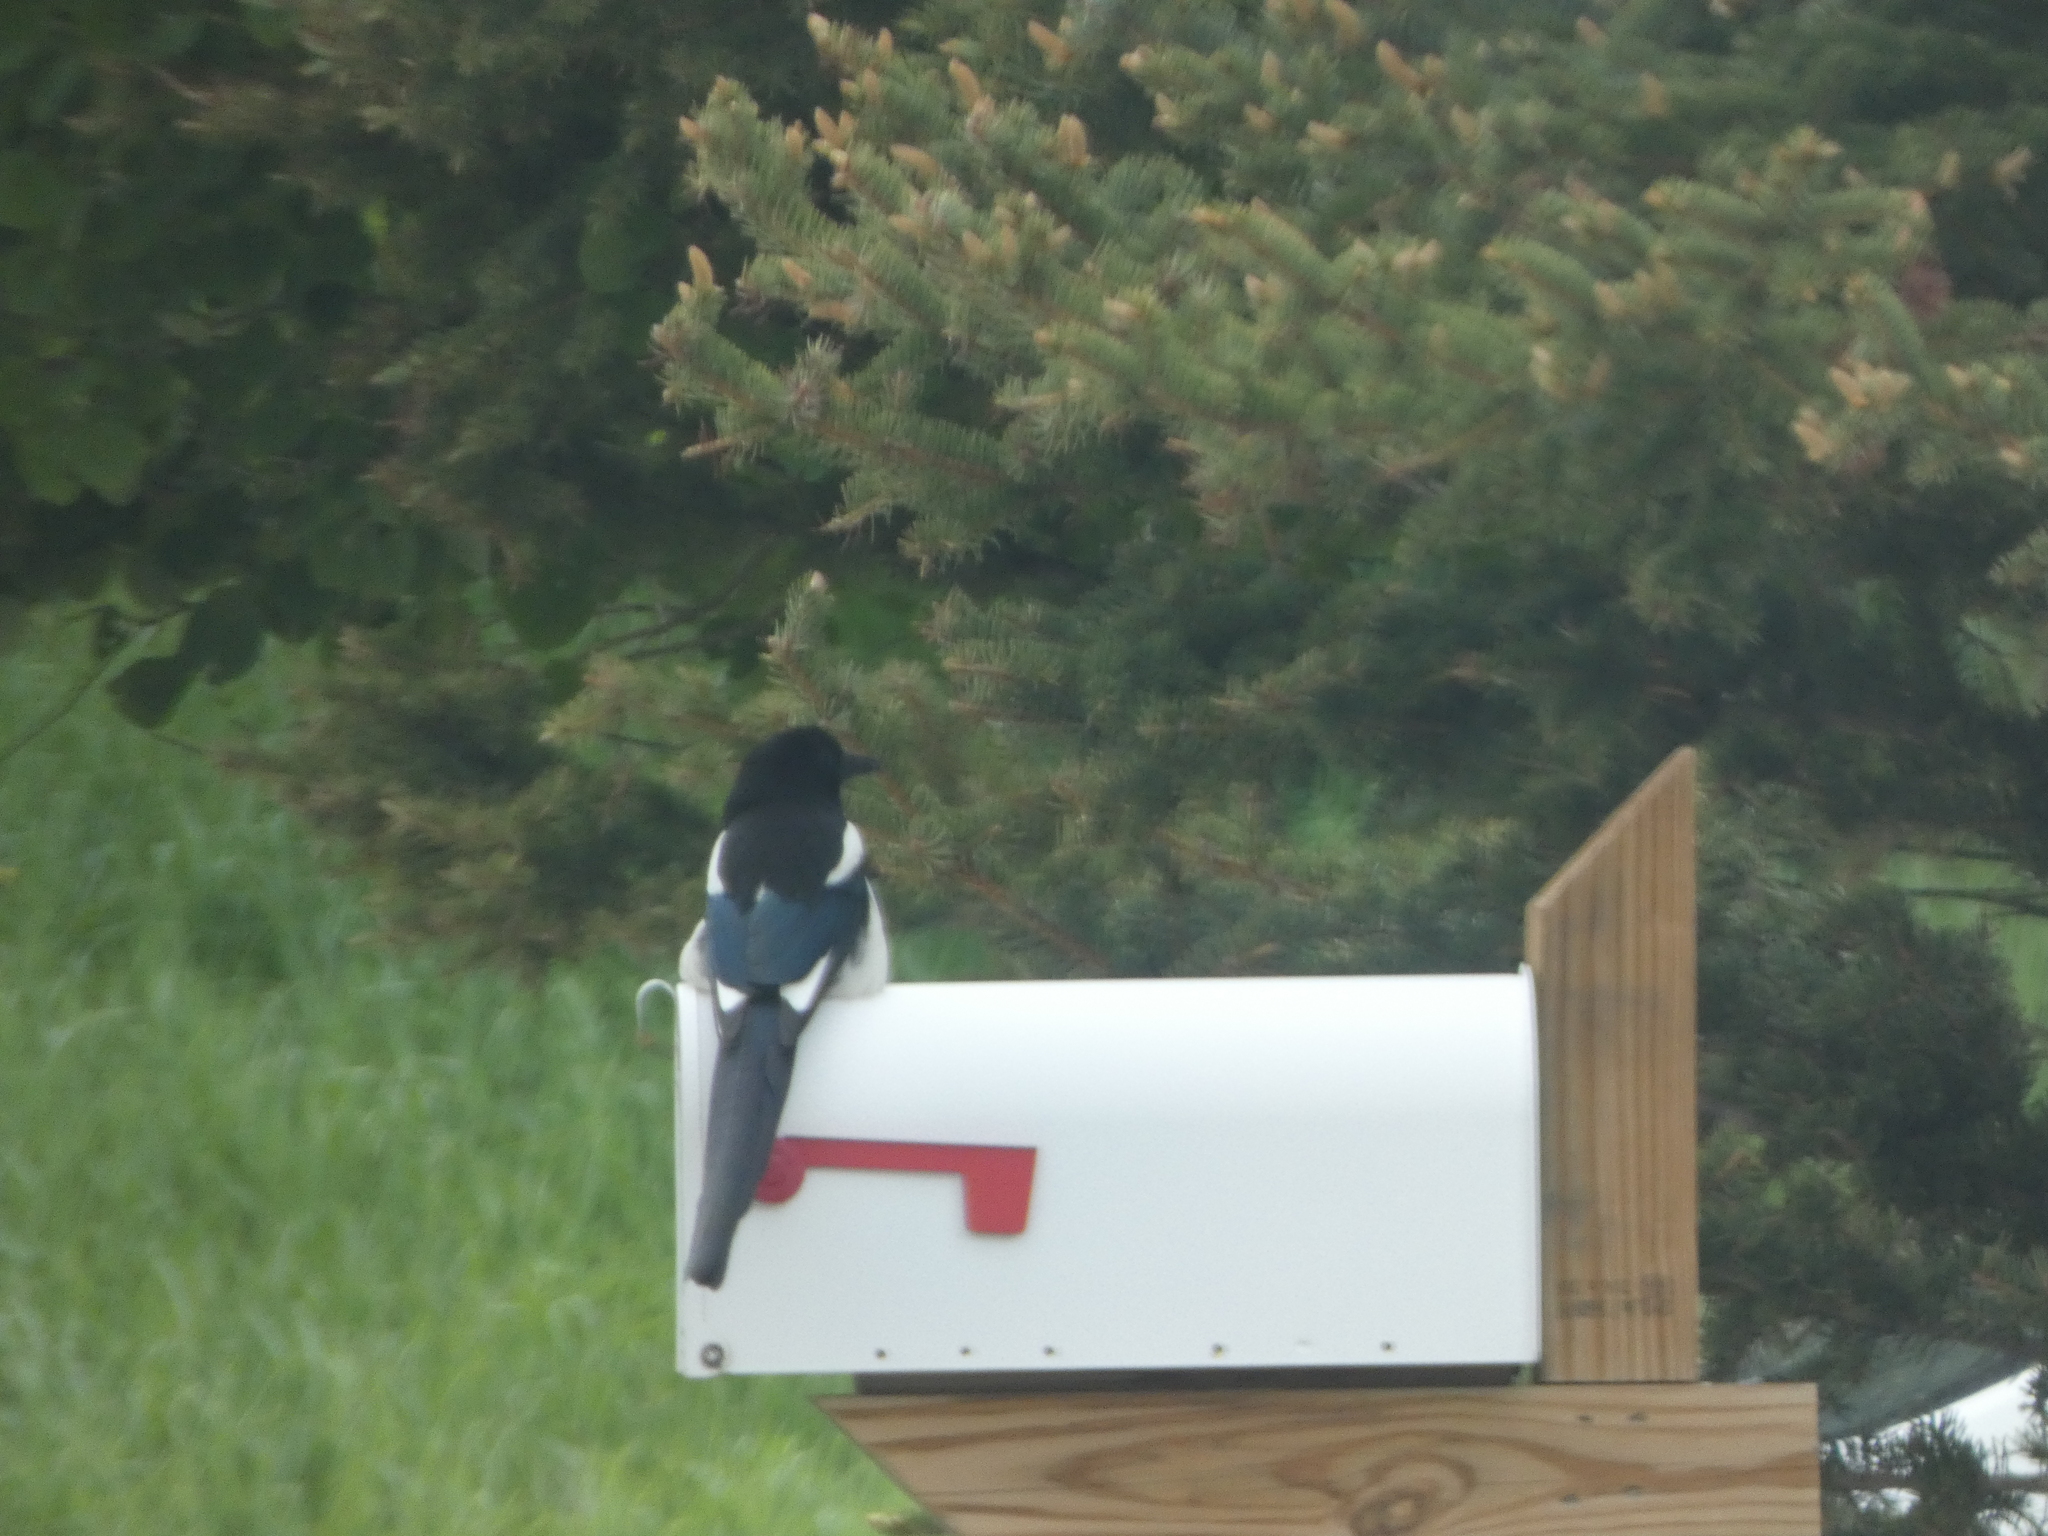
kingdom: Animalia
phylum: Chordata
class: Aves
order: Passeriformes
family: Corvidae
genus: Pica
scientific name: Pica hudsonia
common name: Black-billed magpie
